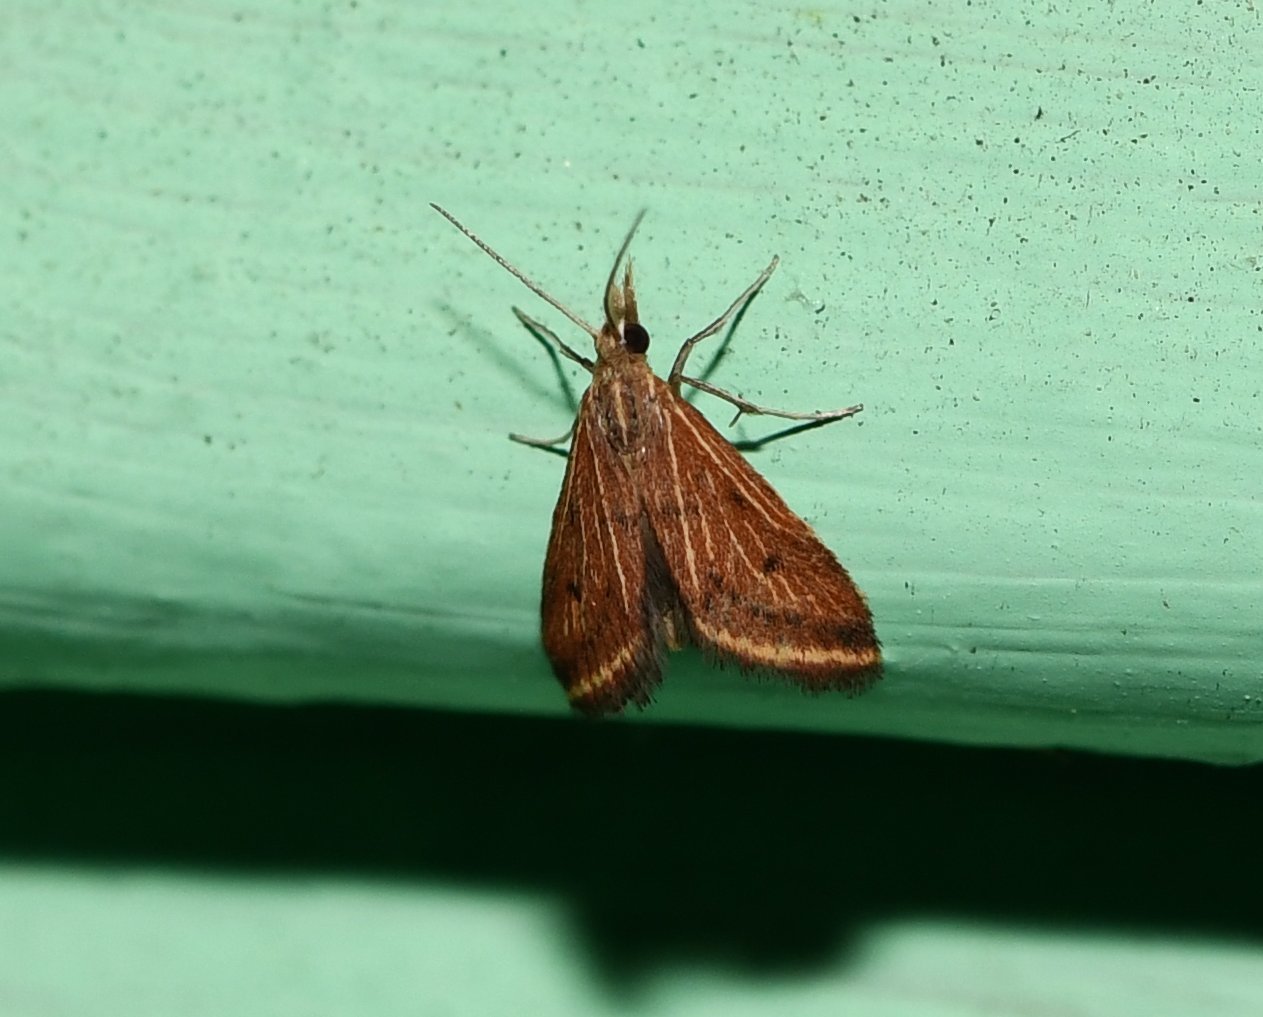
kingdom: Animalia
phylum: Arthropoda
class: Insecta
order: Lepidoptera
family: Crambidae
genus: Microtheoris
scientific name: Microtheoris ophionalis
